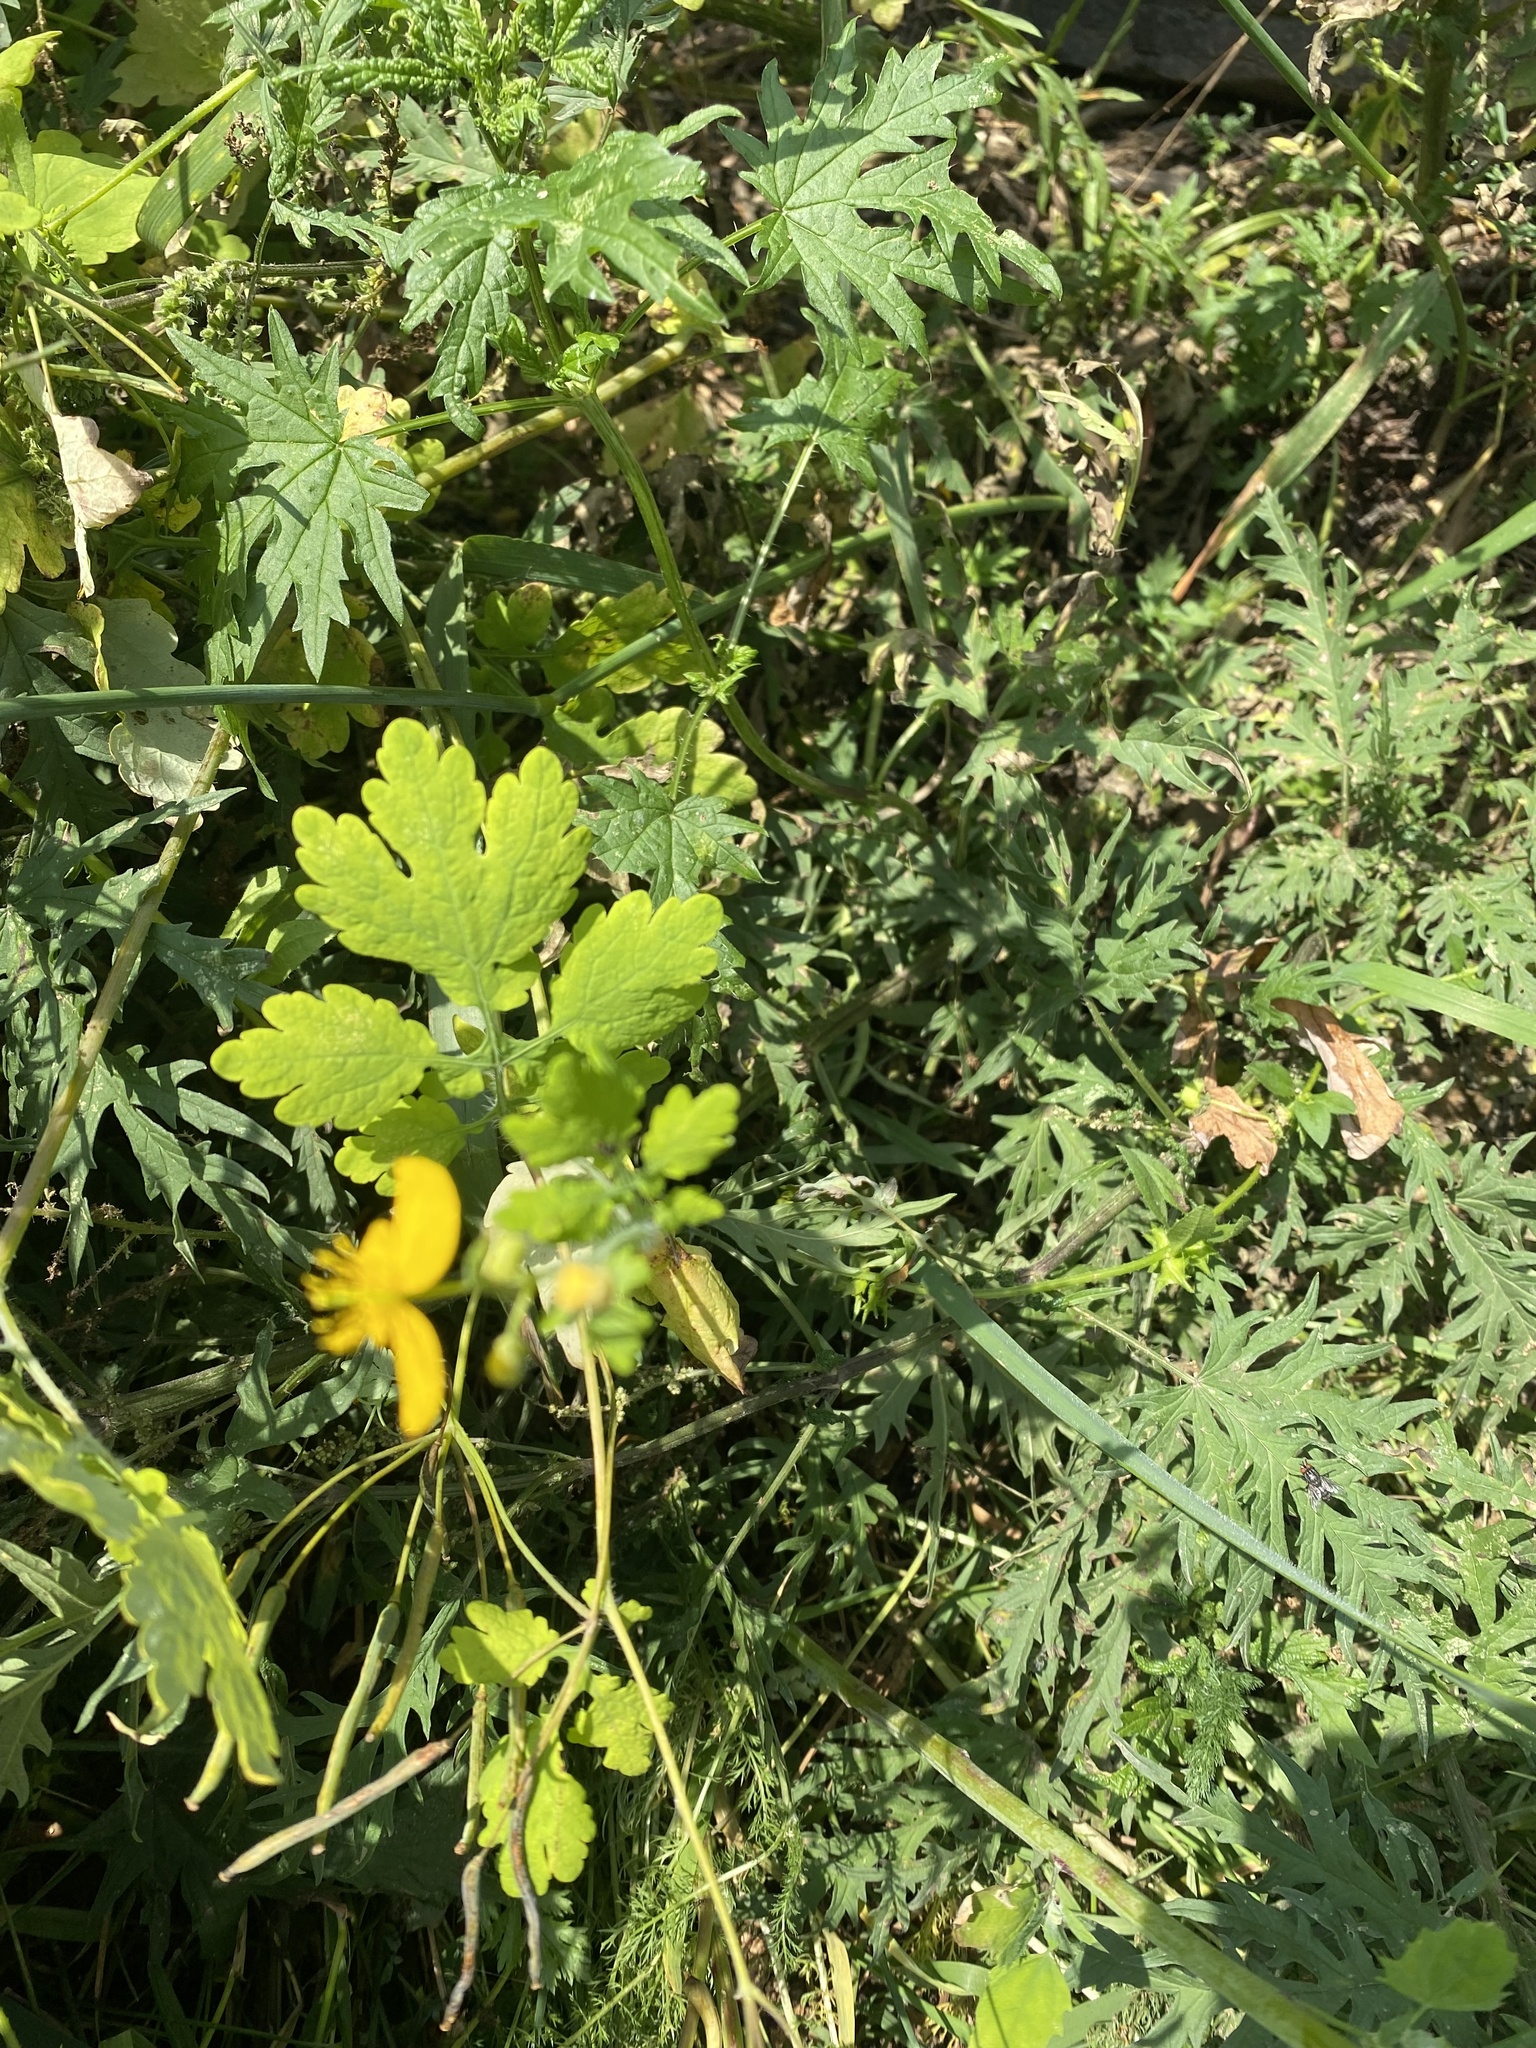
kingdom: Plantae
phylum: Tracheophyta
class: Magnoliopsida
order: Ranunculales
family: Papaveraceae
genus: Chelidonium
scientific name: Chelidonium majus
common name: Greater celandine
